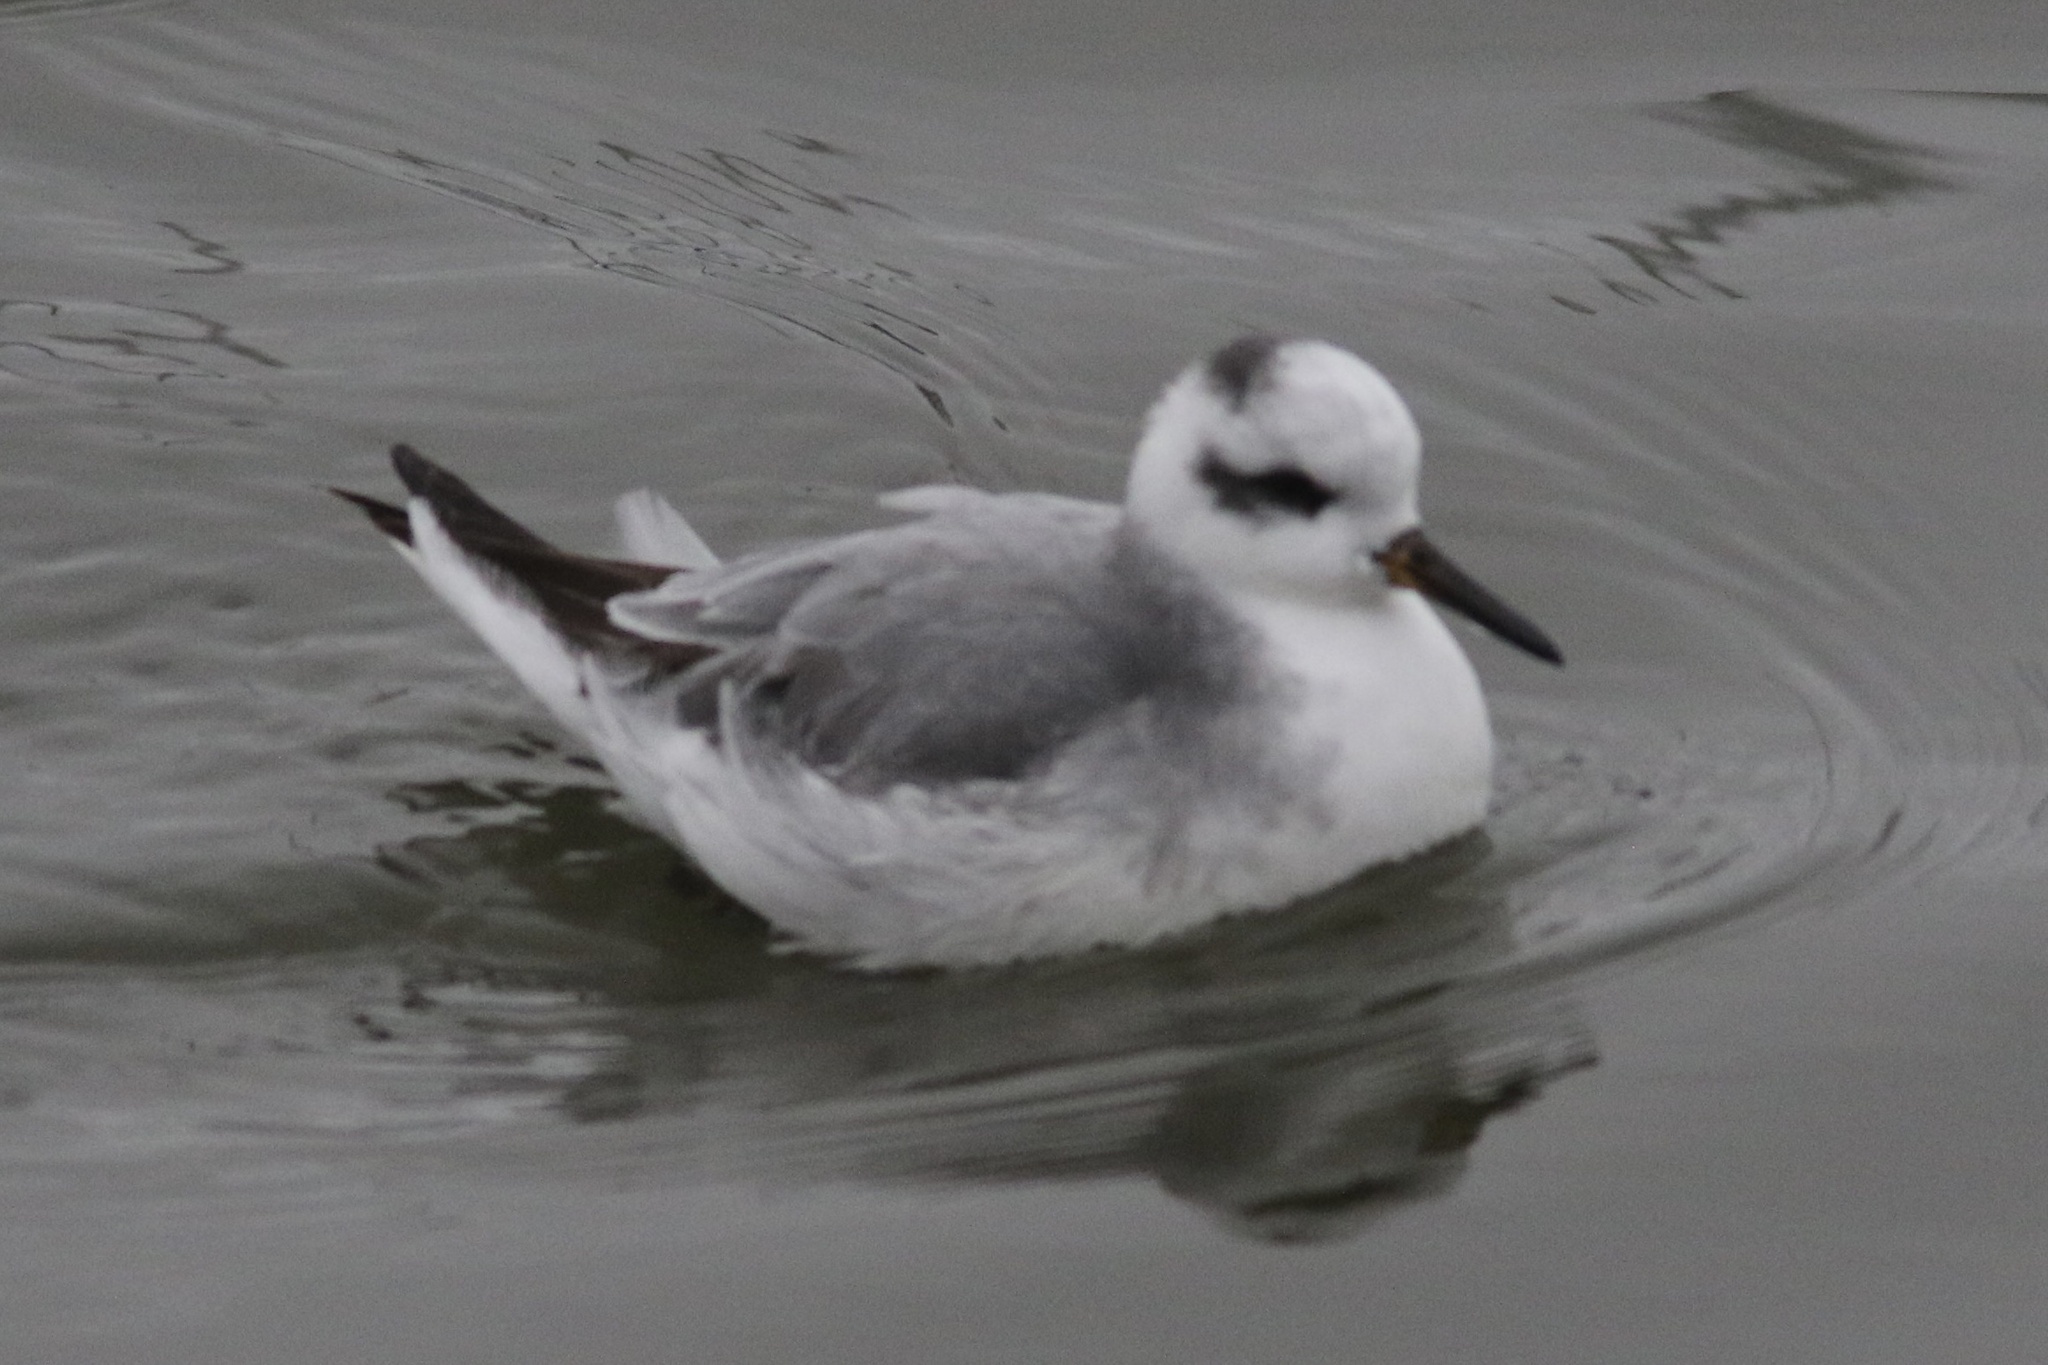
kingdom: Animalia
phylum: Chordata
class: Aves
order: Charadriiformes
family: Scolopacidae
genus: Phalaropus
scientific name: Phalaropus fulicarius
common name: Red phalarope
